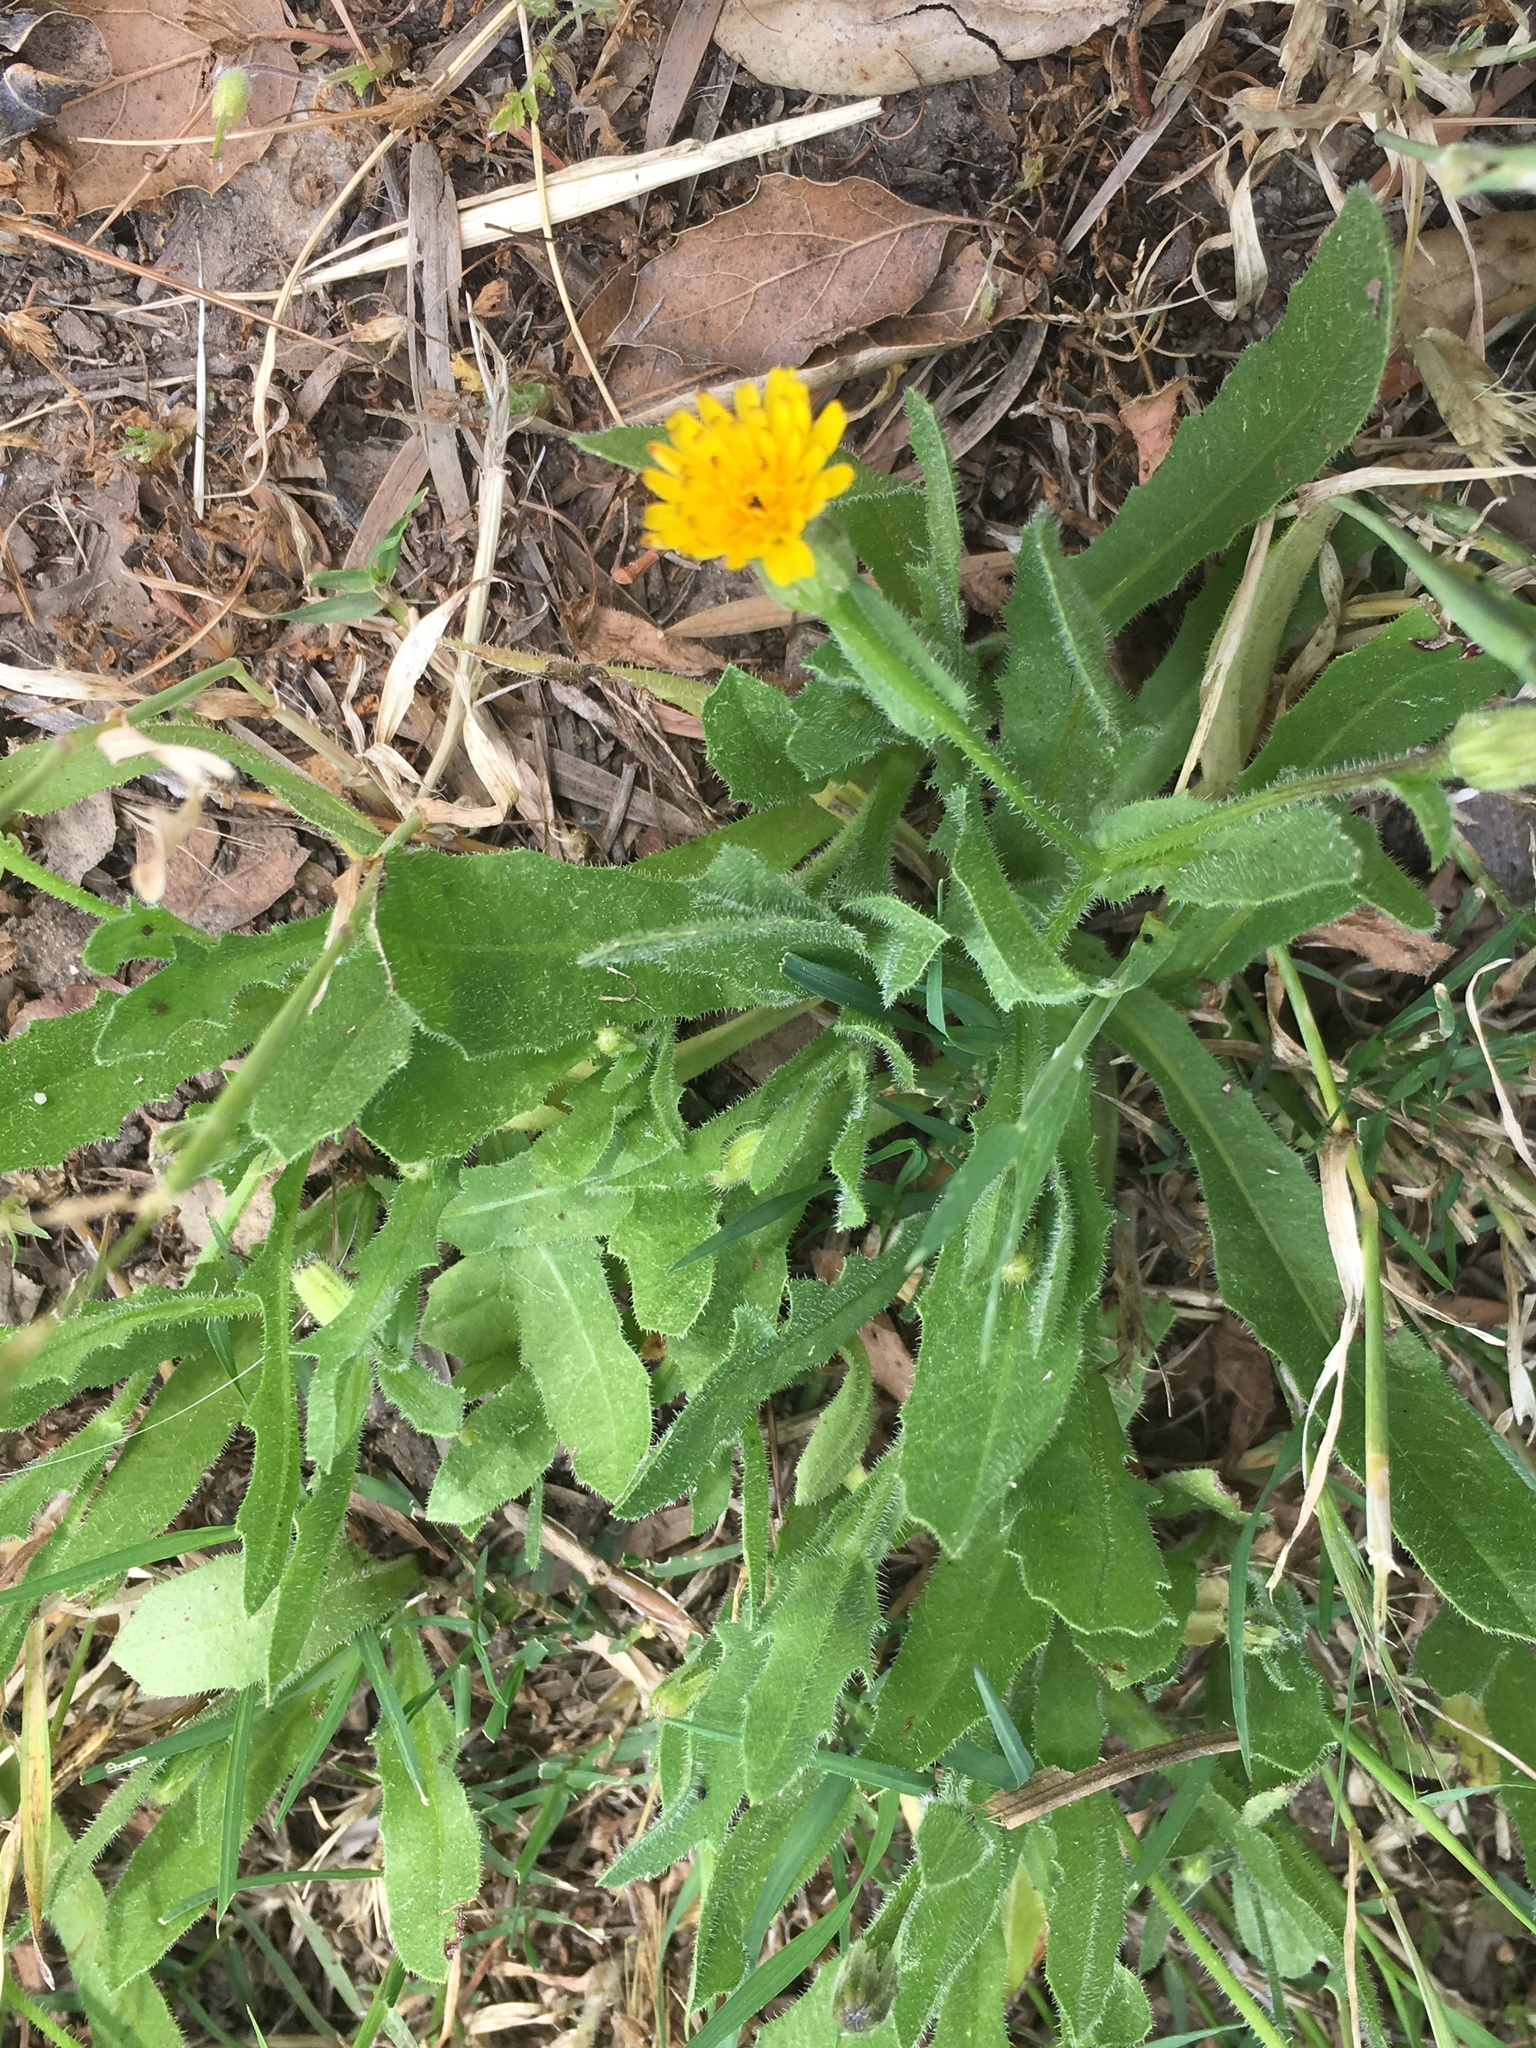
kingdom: Plantae
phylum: Tracheophyta
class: Magnoliopsida
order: Asterales
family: Asteraceae
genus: Hedypnois
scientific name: Hedypnois rhagadioloides
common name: Cretan weed
